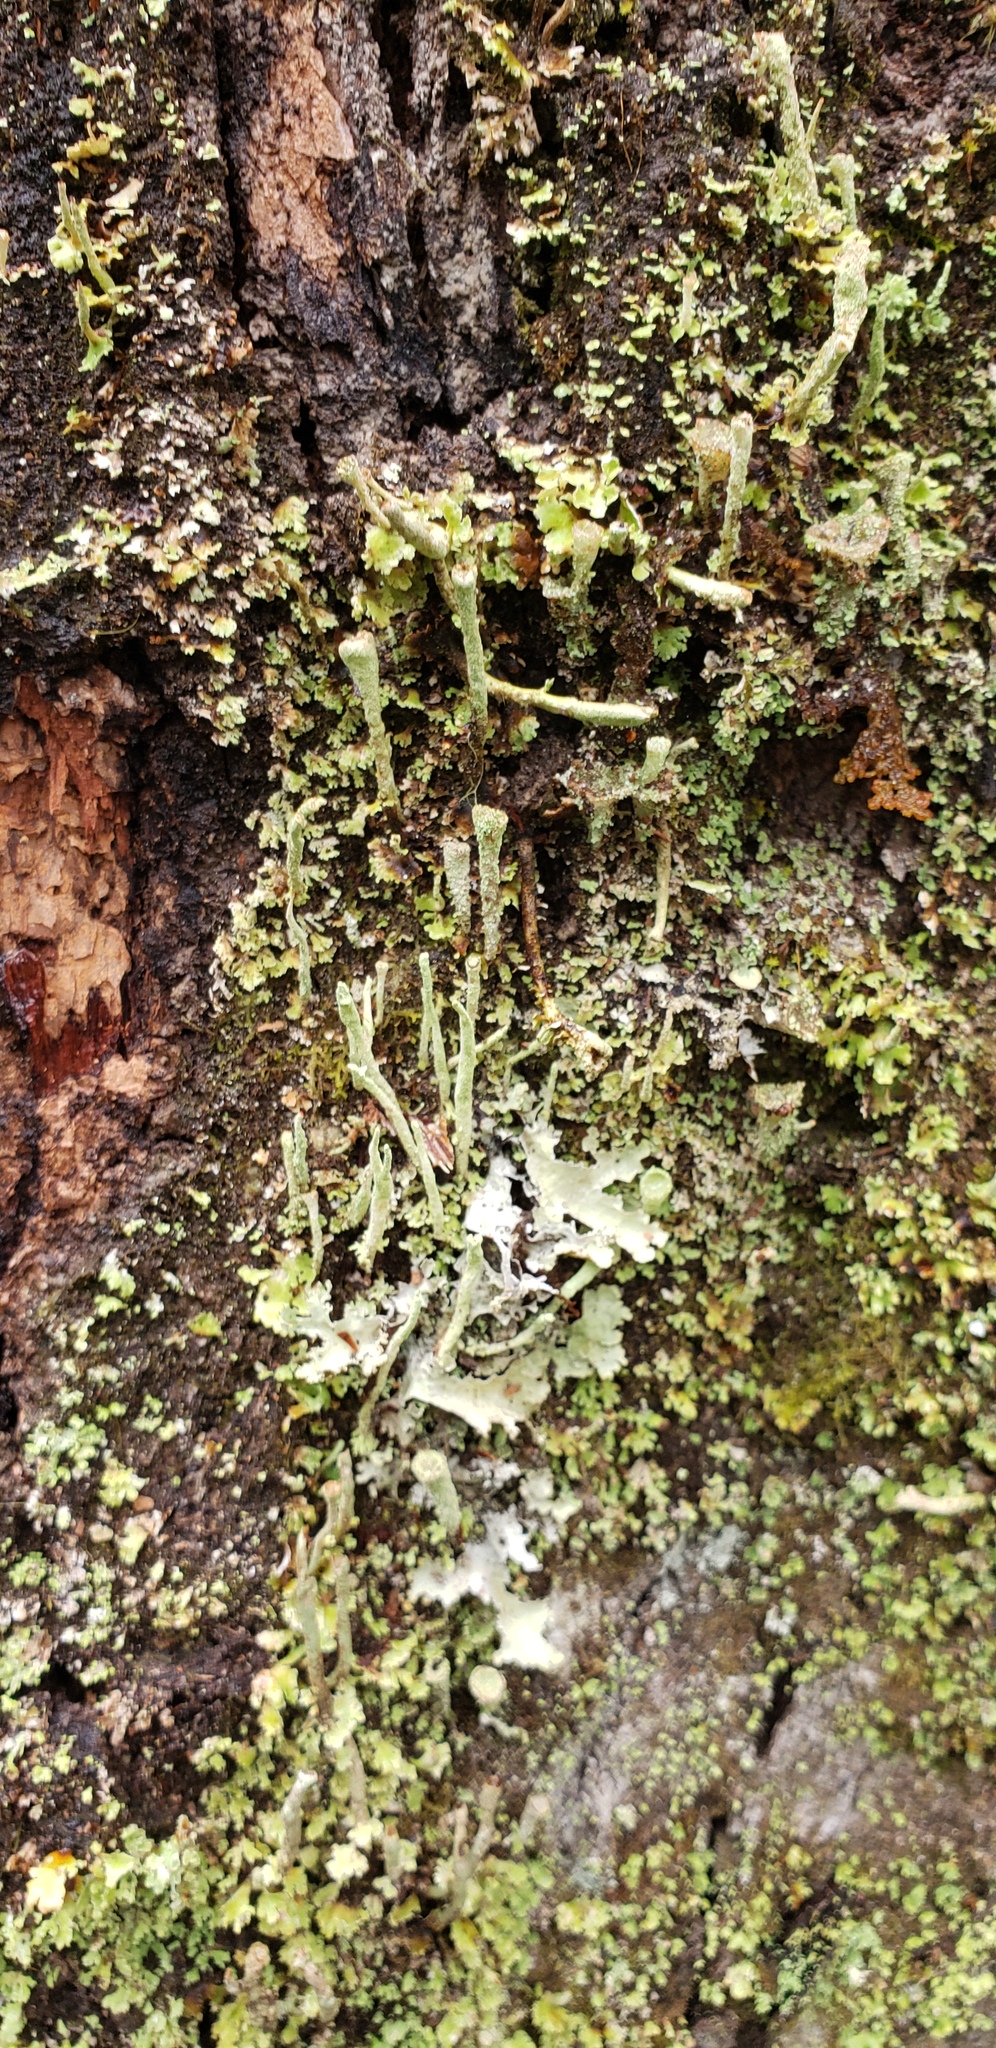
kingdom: Fungi
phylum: Ascomycota
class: Lecanoromycetes
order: Lecanorales
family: Cladoniaceae
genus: Cladonia
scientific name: Cladonia fimbriata
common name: Powdered trumpet lichen
